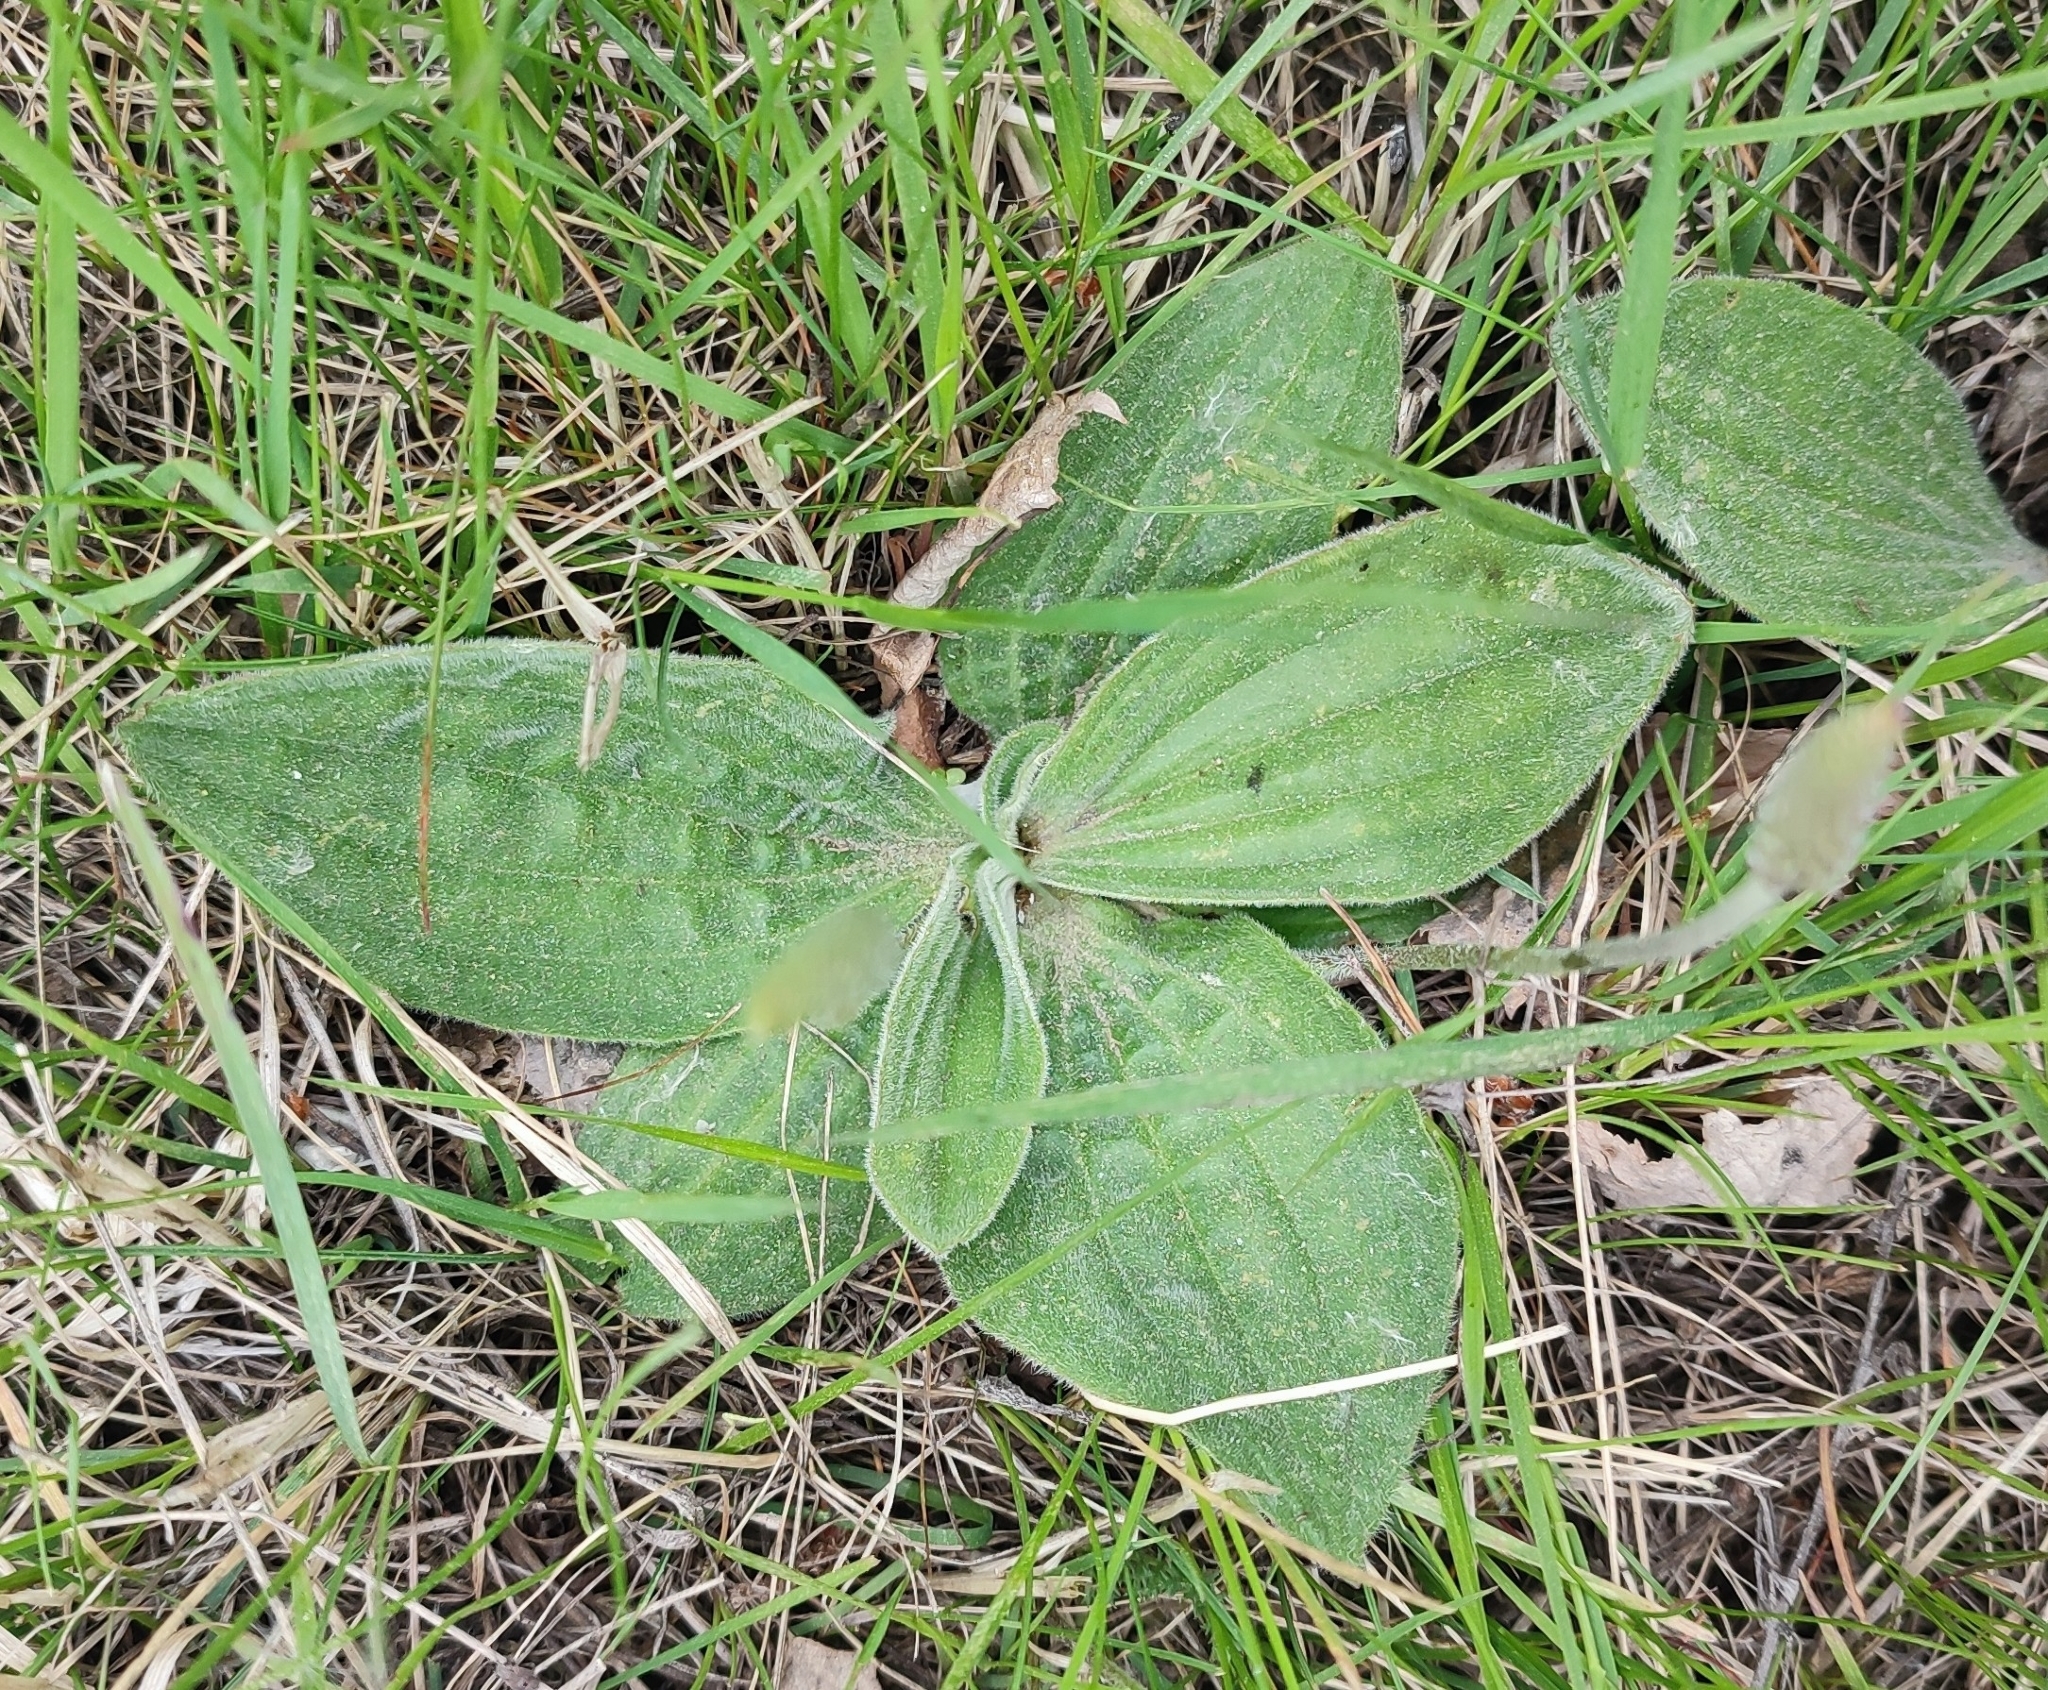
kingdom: Plantae
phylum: Tracheophyta
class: Magnoliopsida
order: Lamiales
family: Plantaginaceae
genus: Plantago
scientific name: Plantago media
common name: Hoary plantain
